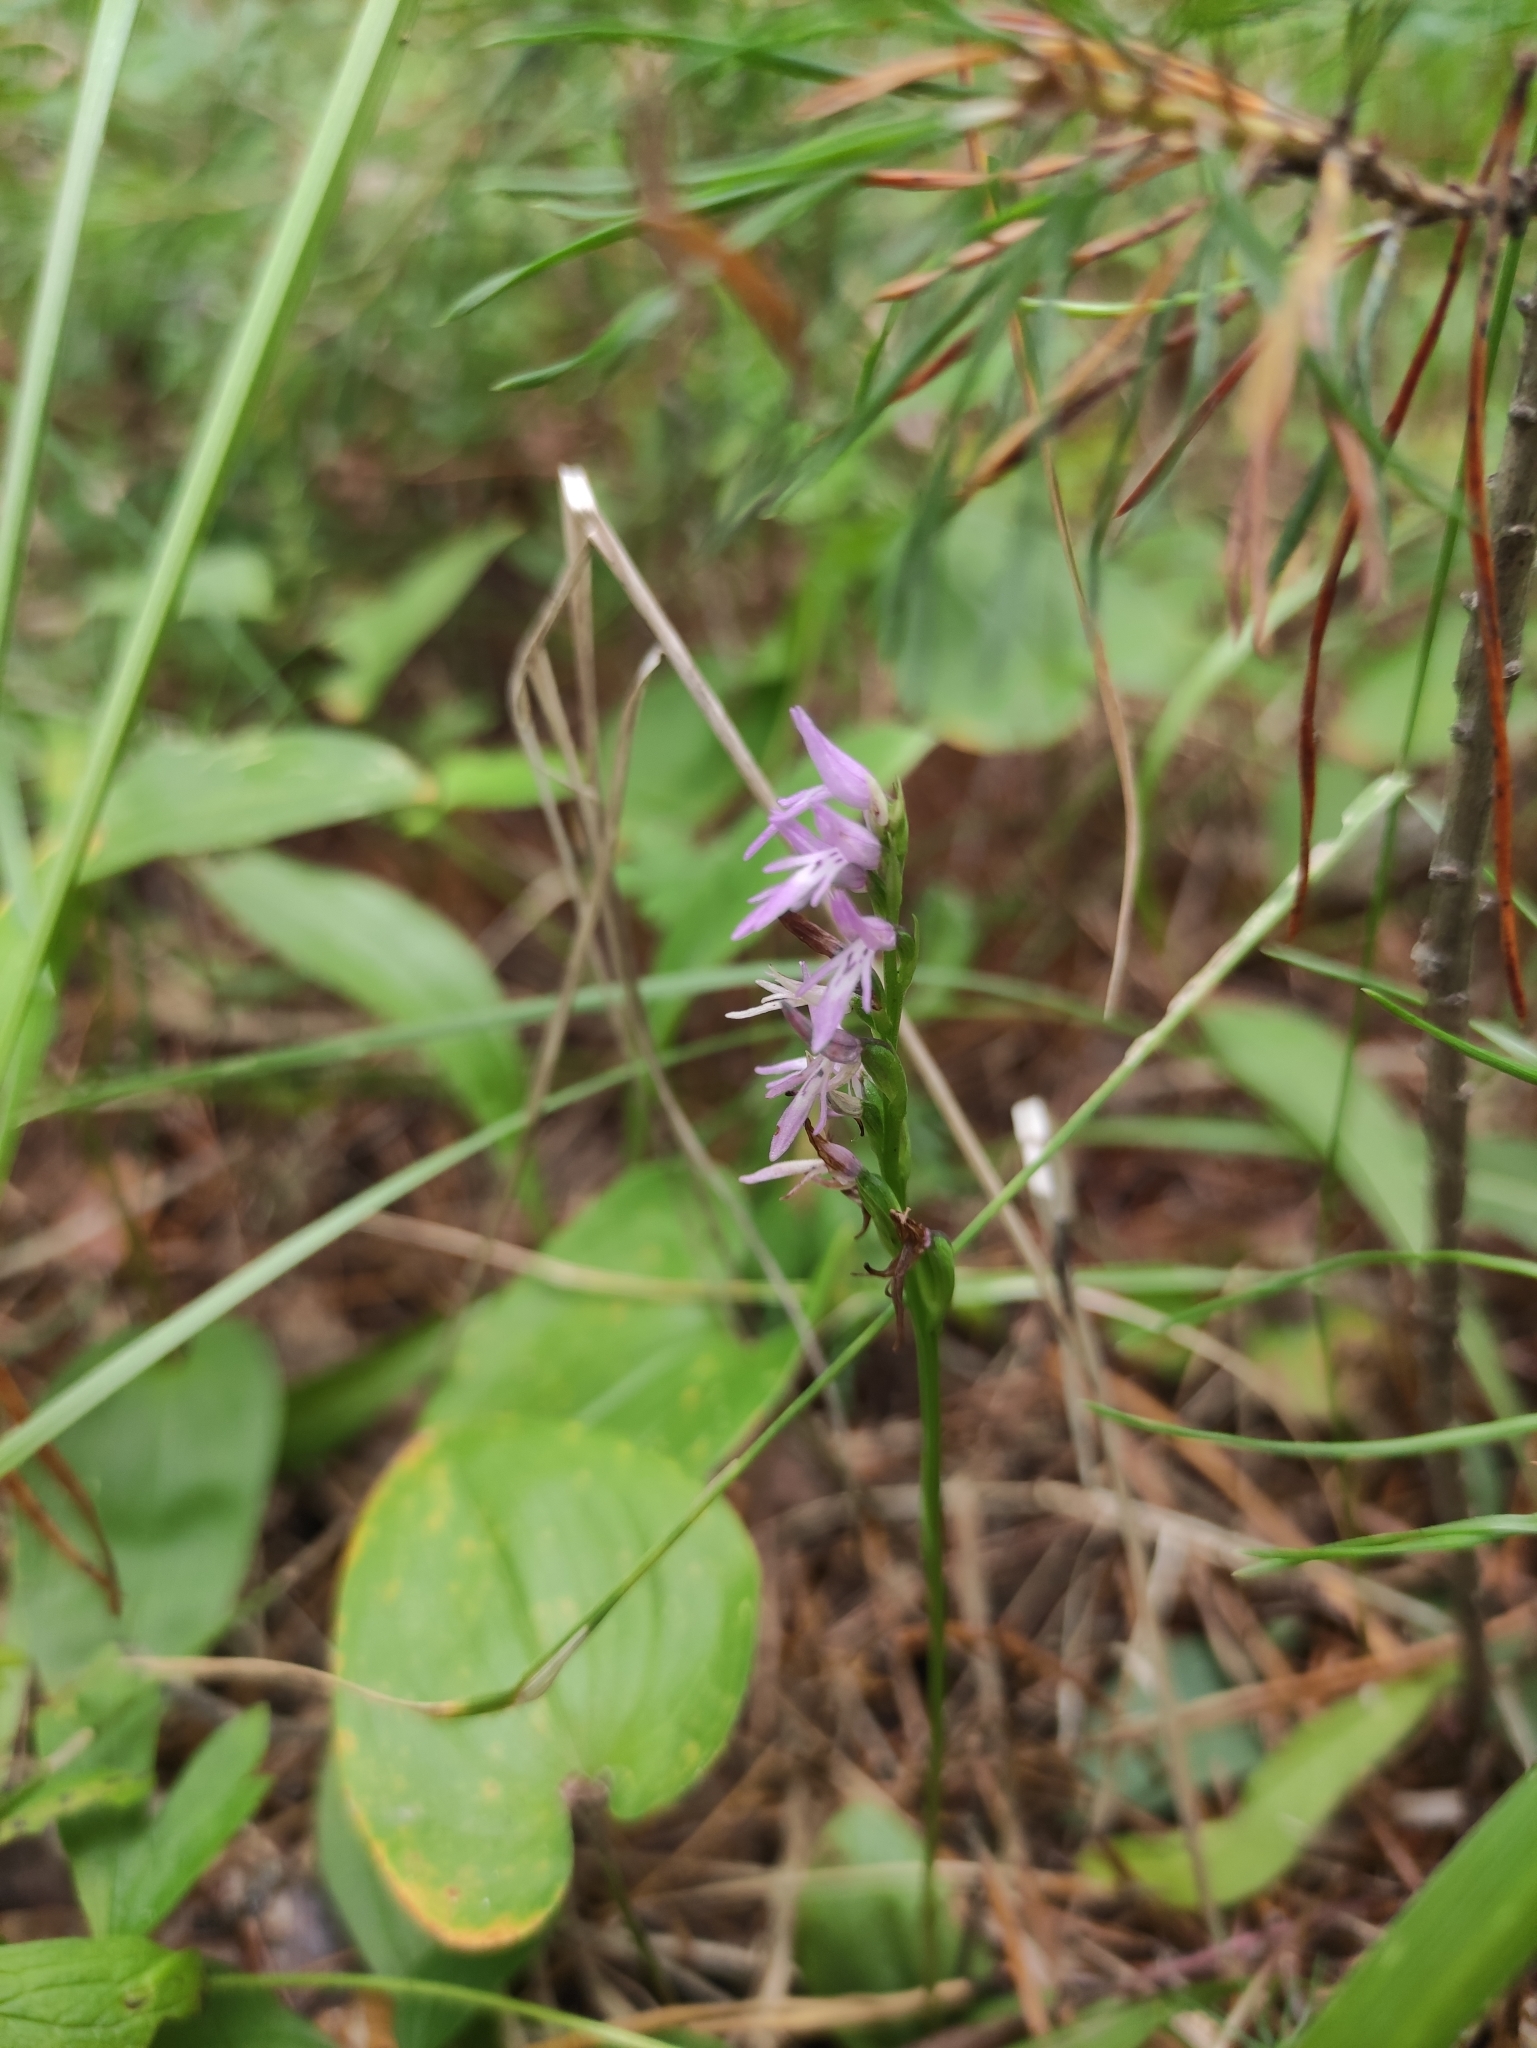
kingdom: Plantae
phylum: Tracheophyta
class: Liliopsida
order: Asparagales
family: Orchidaceae
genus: Hemipilia
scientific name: Hemipilia cucullata
